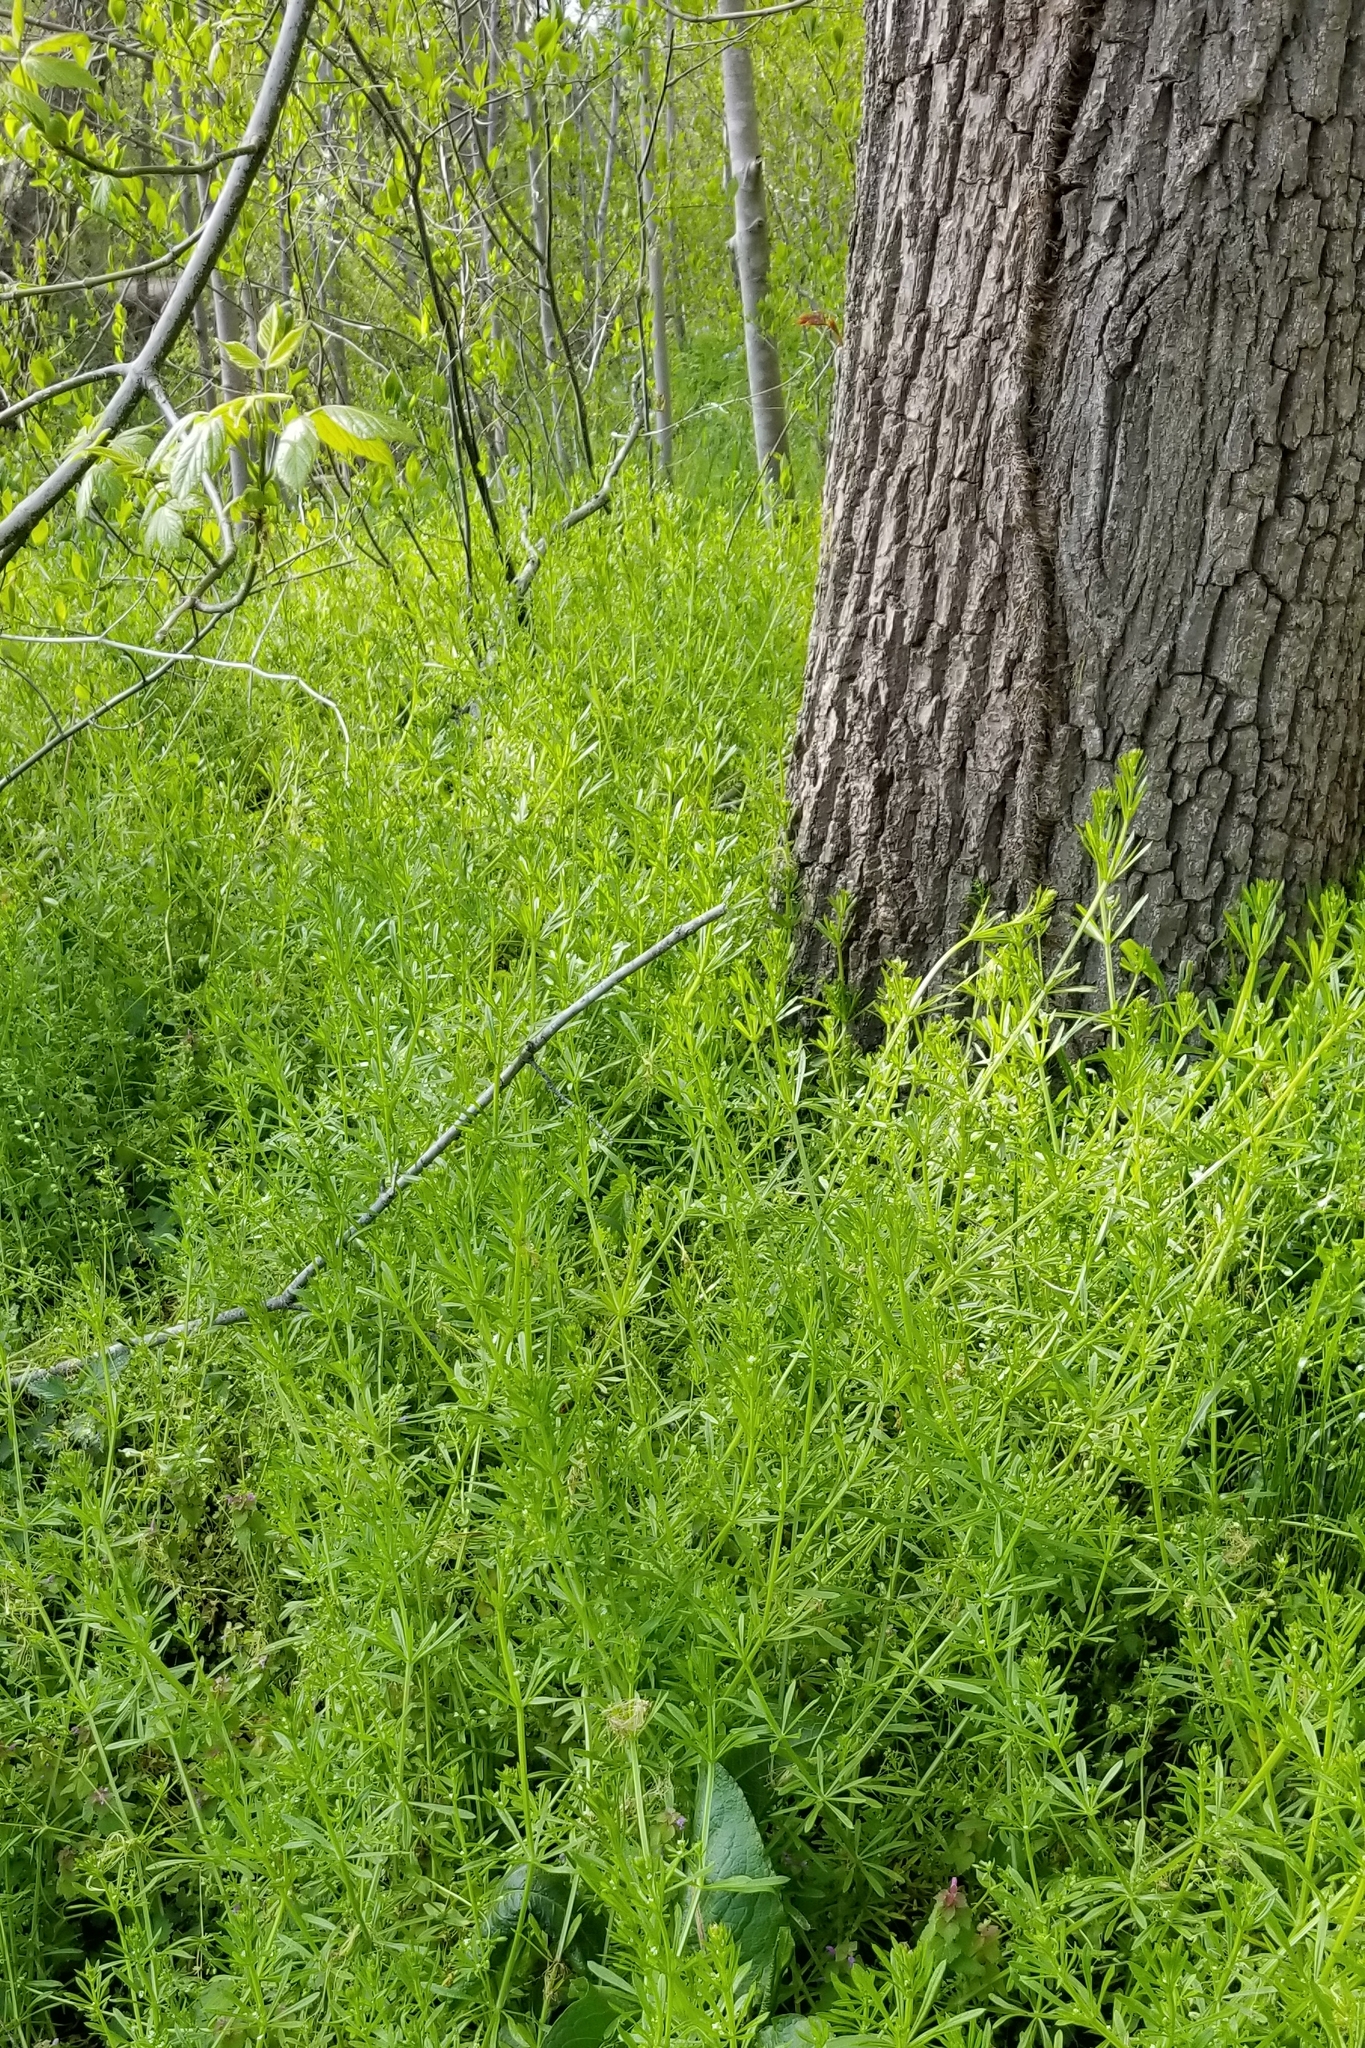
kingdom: Plantae
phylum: Tracheophyta
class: Magnoliopsida
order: Gentianales
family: Rubiaceae
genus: Galium
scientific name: Galium aparine
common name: Cleavers
